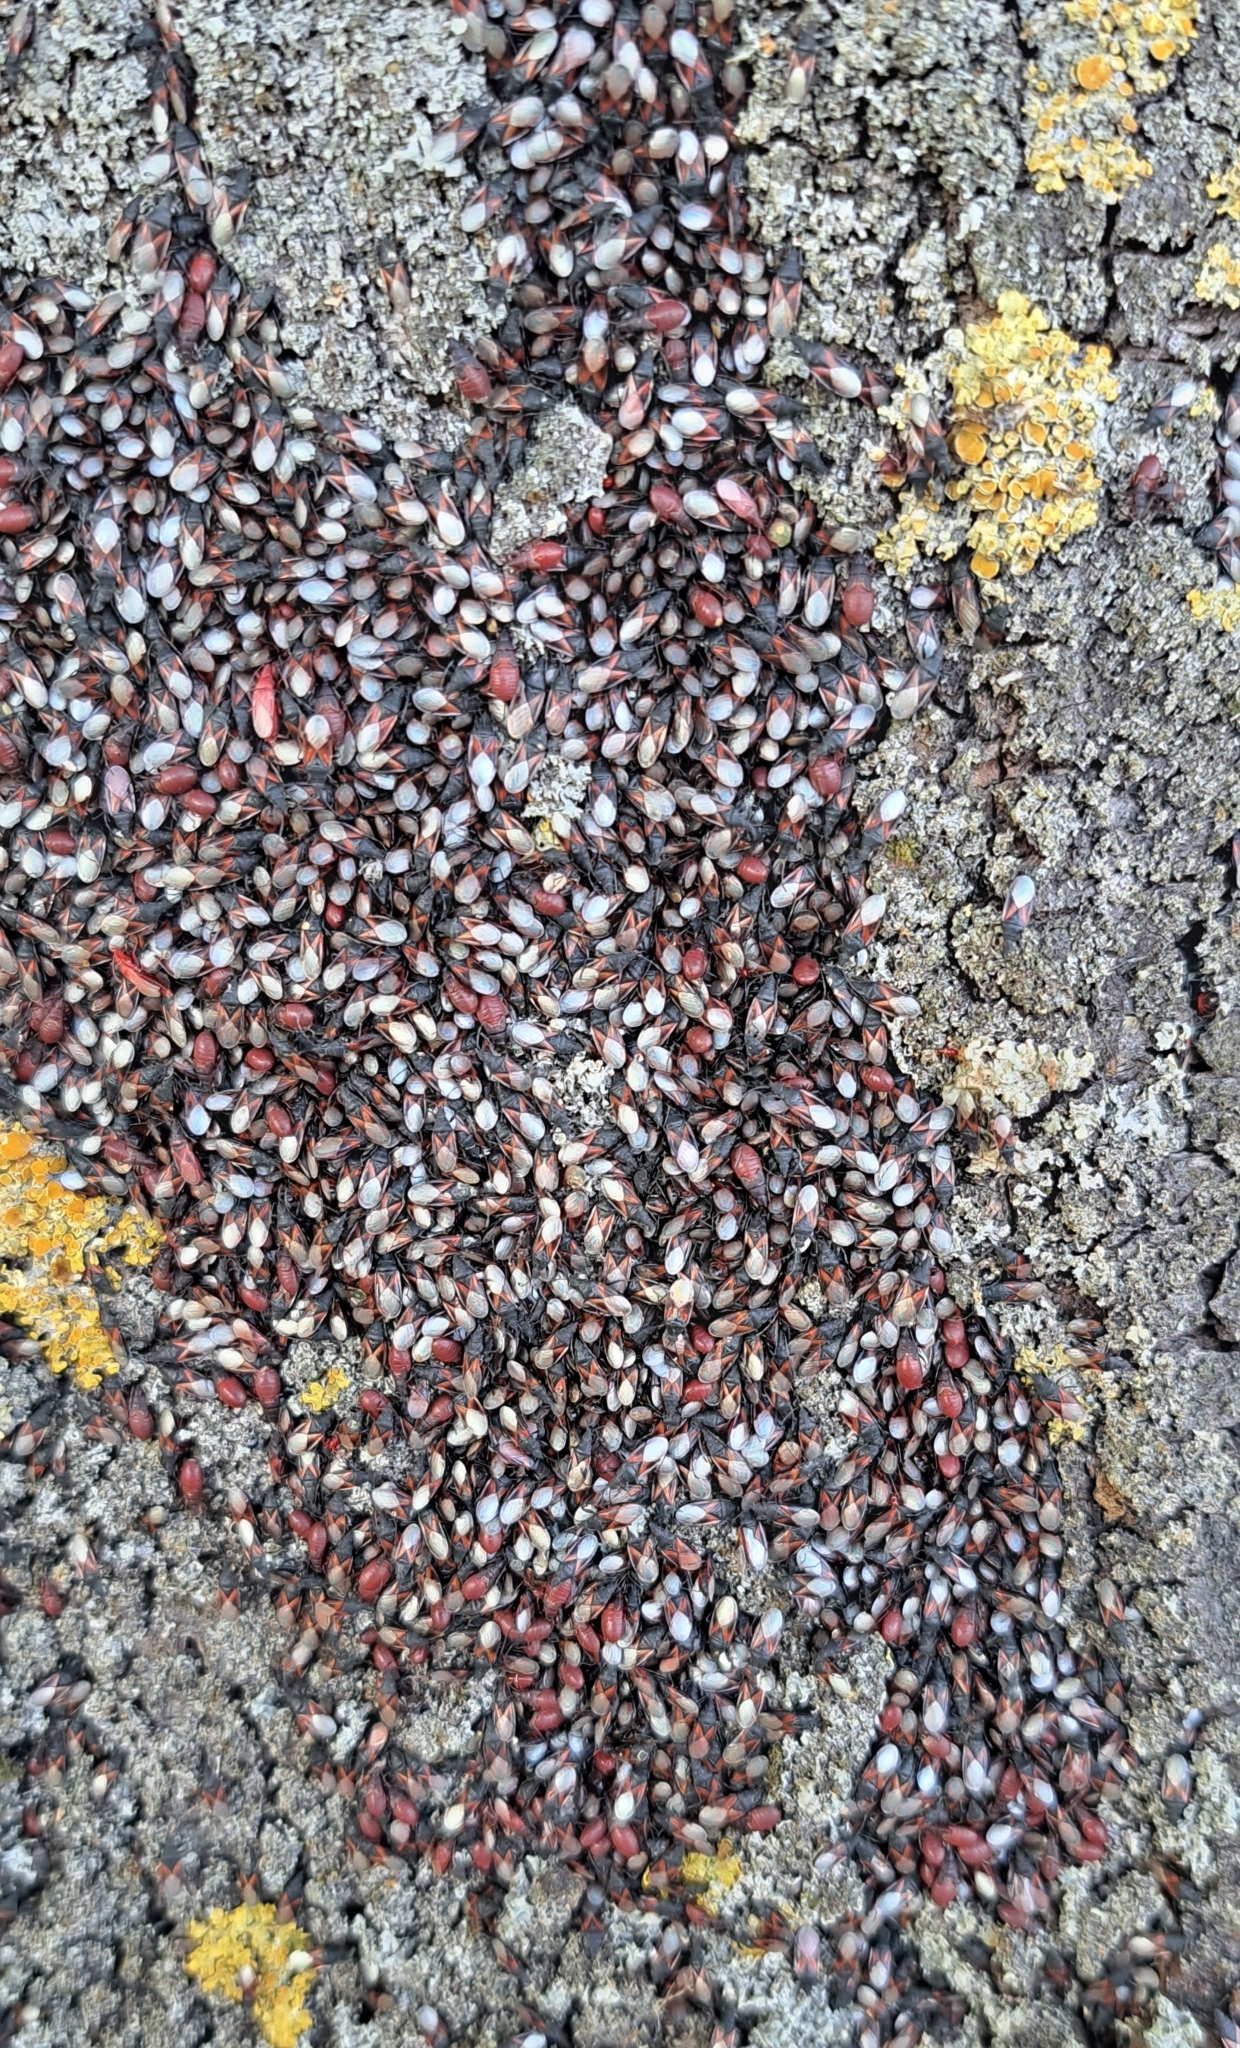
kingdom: Animalia
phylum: Arthropoda
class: Insecta
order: Hemiptera
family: Oxycarenidae
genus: Oxycarenus
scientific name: Oxycarenus lavaterae
